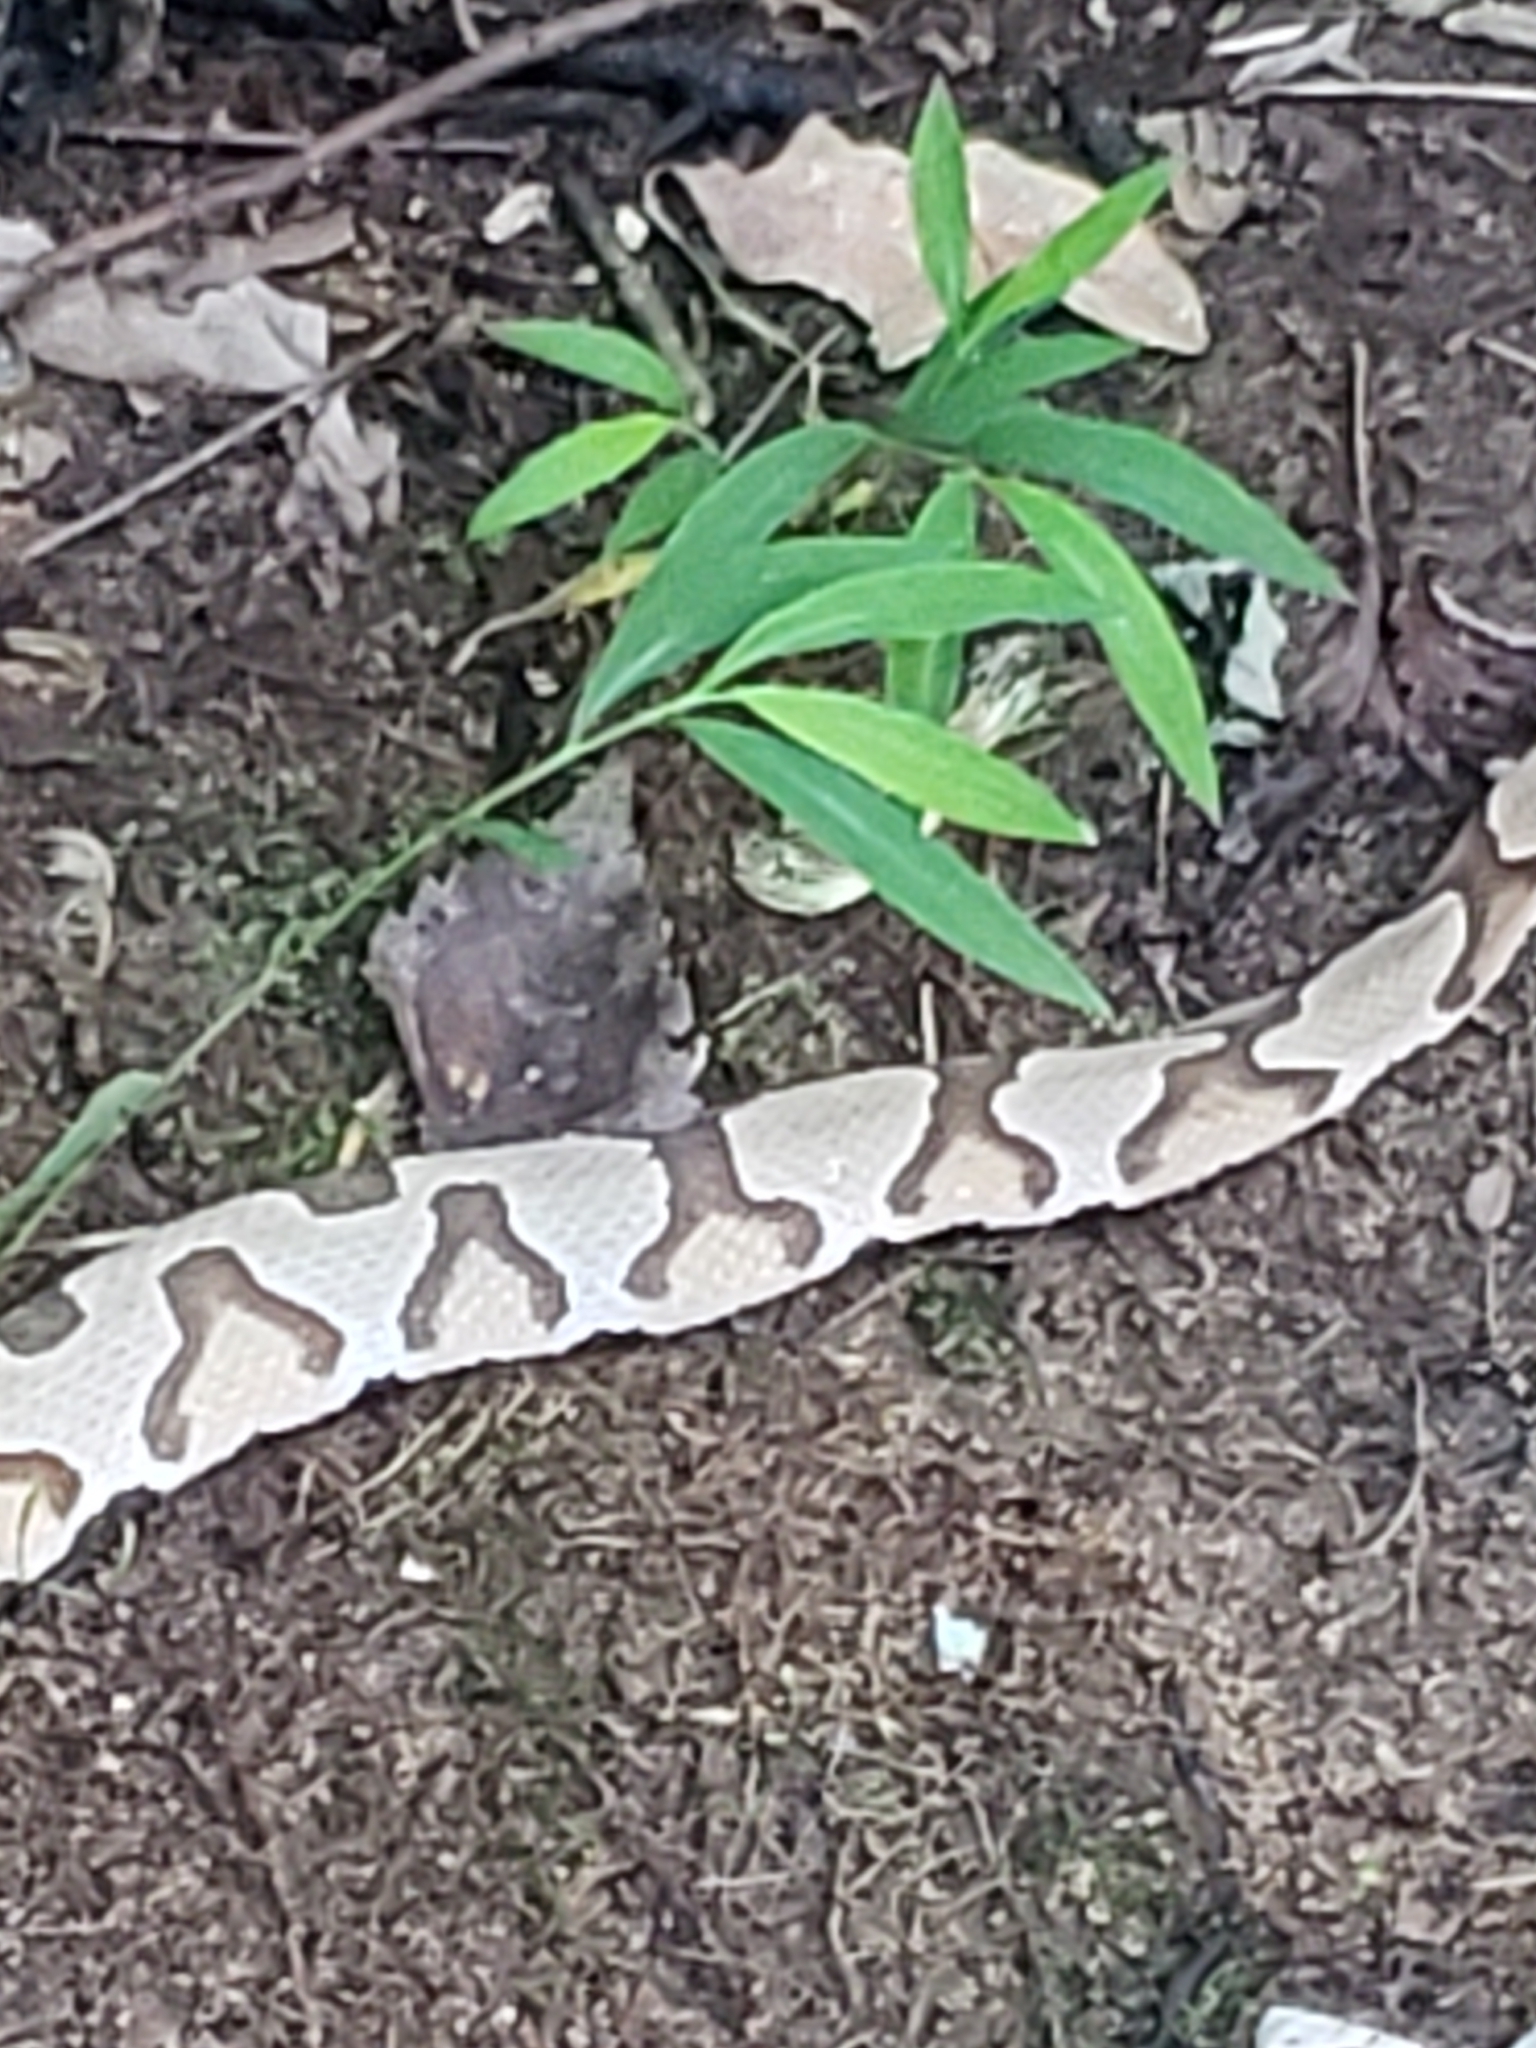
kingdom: Animalia
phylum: Chordata
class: Squamata
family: Viperidae
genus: Agkistrodon
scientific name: Agkistrodon contortrix
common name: Northern copperhead
